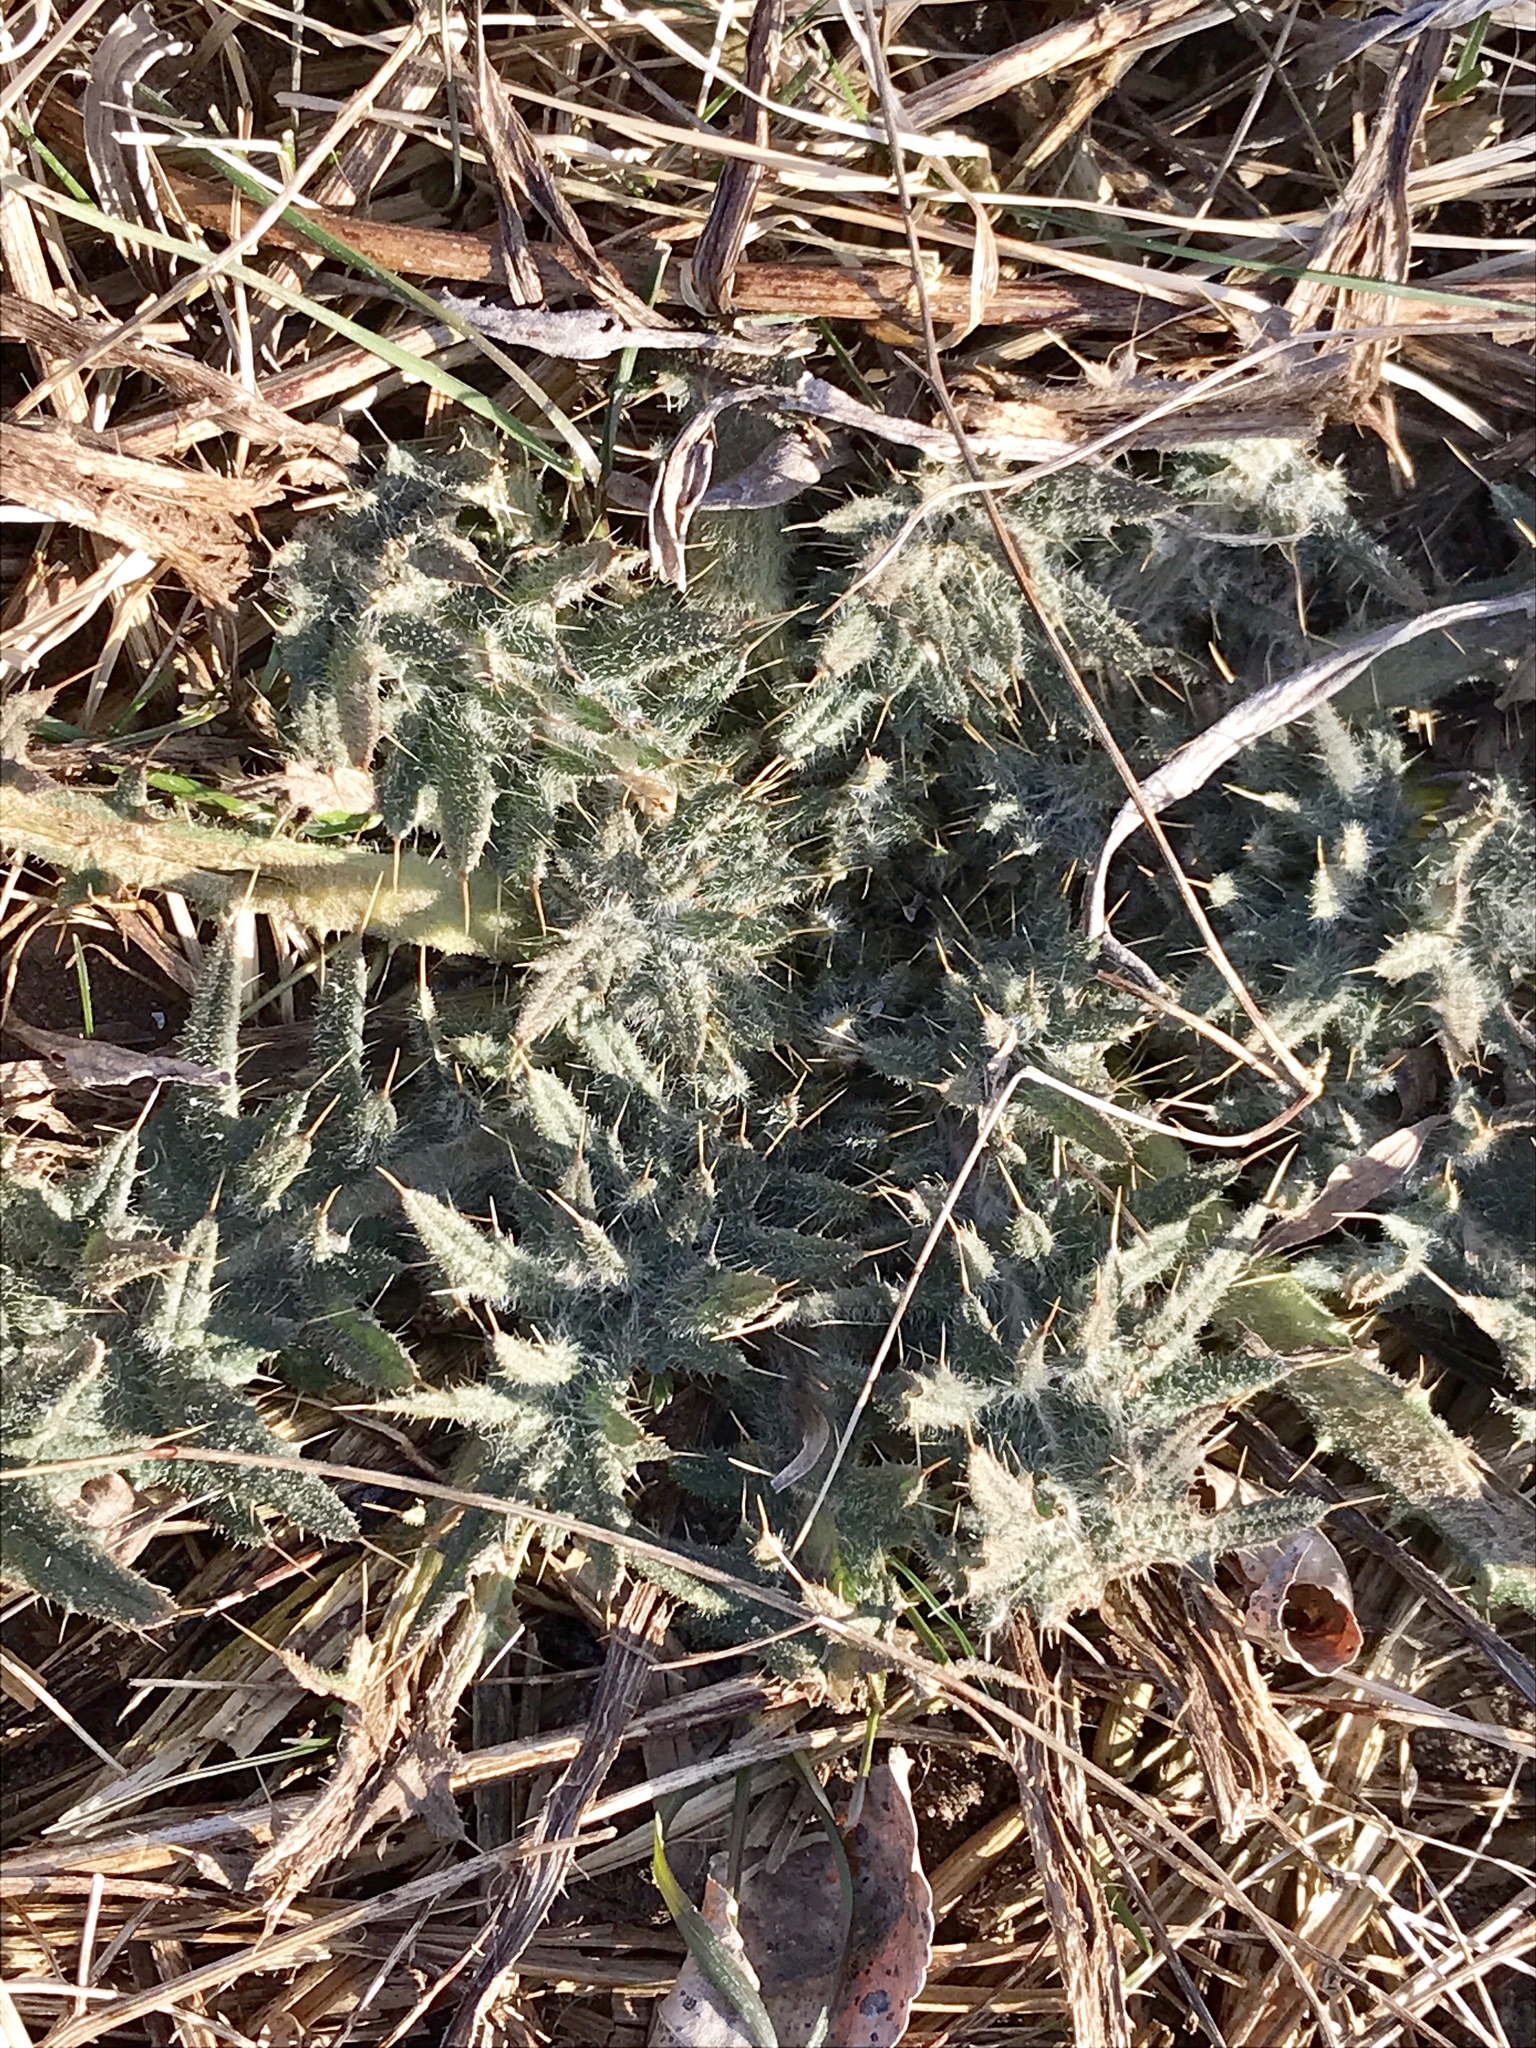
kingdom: Plantae
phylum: Tracheophyta
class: Magnoliopsida
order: Asterales
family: Asteraceae
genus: Cirsium
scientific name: Cirsium vulgare
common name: Bull thistle
